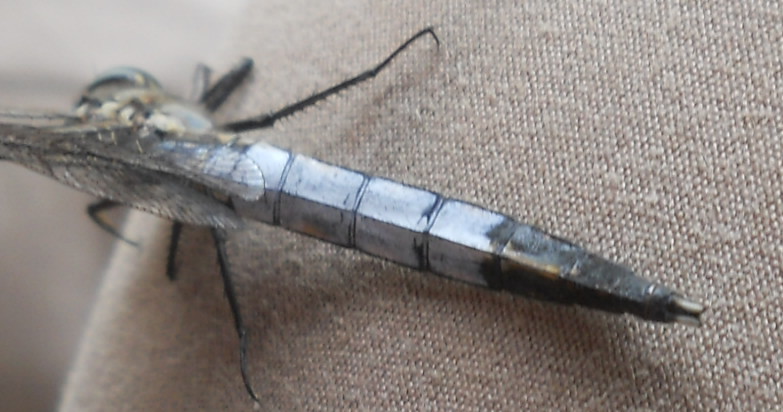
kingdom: Animalia
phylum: Arthropoda
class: Insecta
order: Odonata
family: Libellulidae
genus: Orthetrum
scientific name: Orthetrum albistylum
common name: White-tailed skimmer
